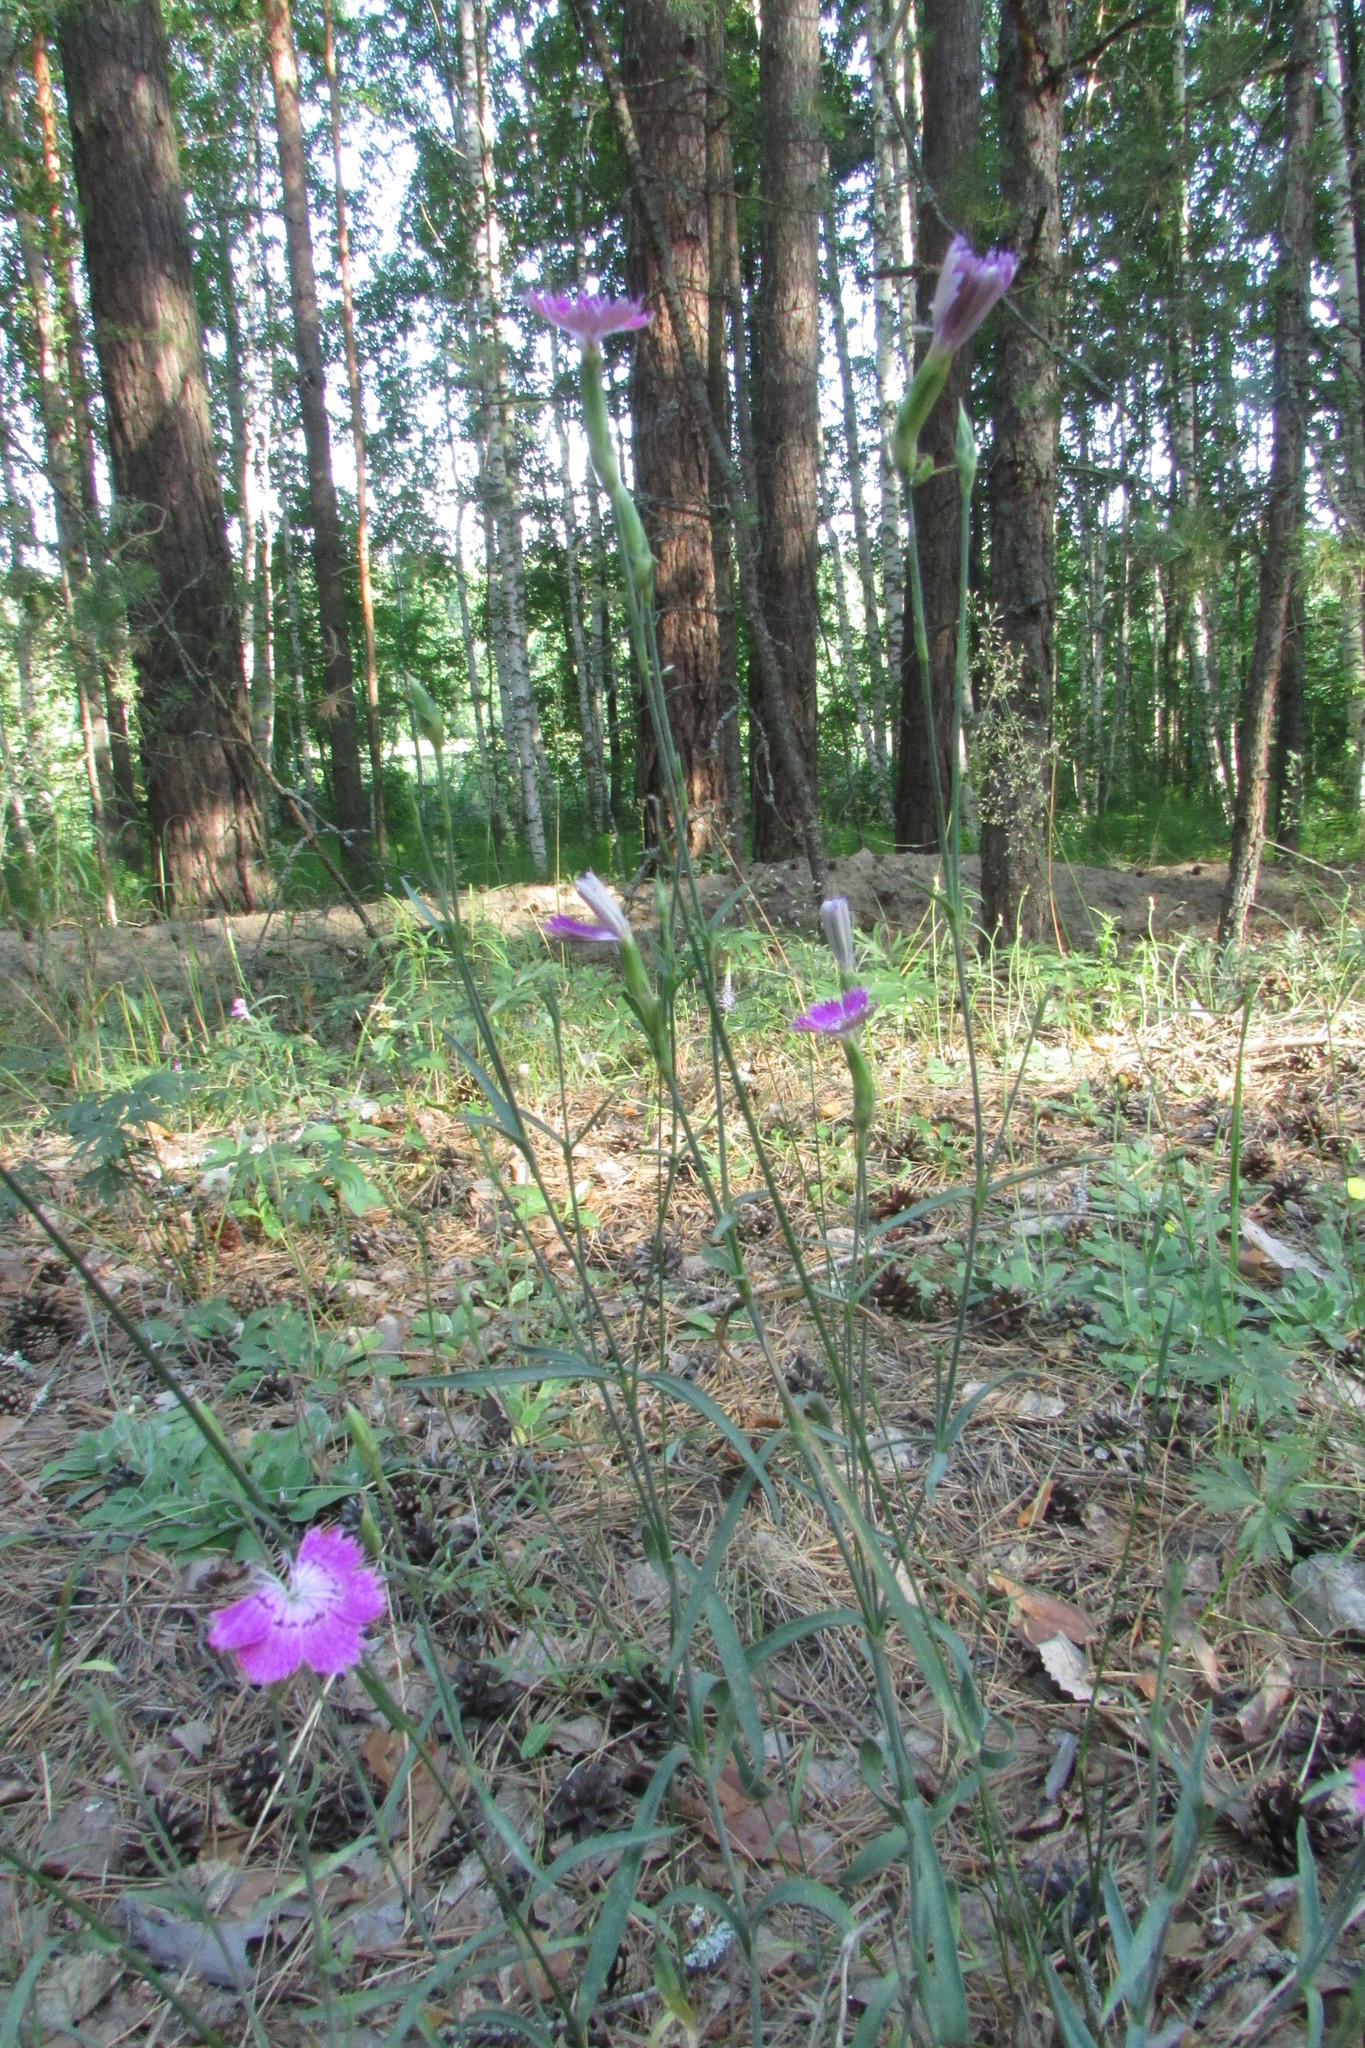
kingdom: Plantae
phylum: Tracheophyta
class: Magnoliopsida
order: Caryophyllales
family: Caryophyllaceae
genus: Dianthus
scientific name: Dianthus campestris
